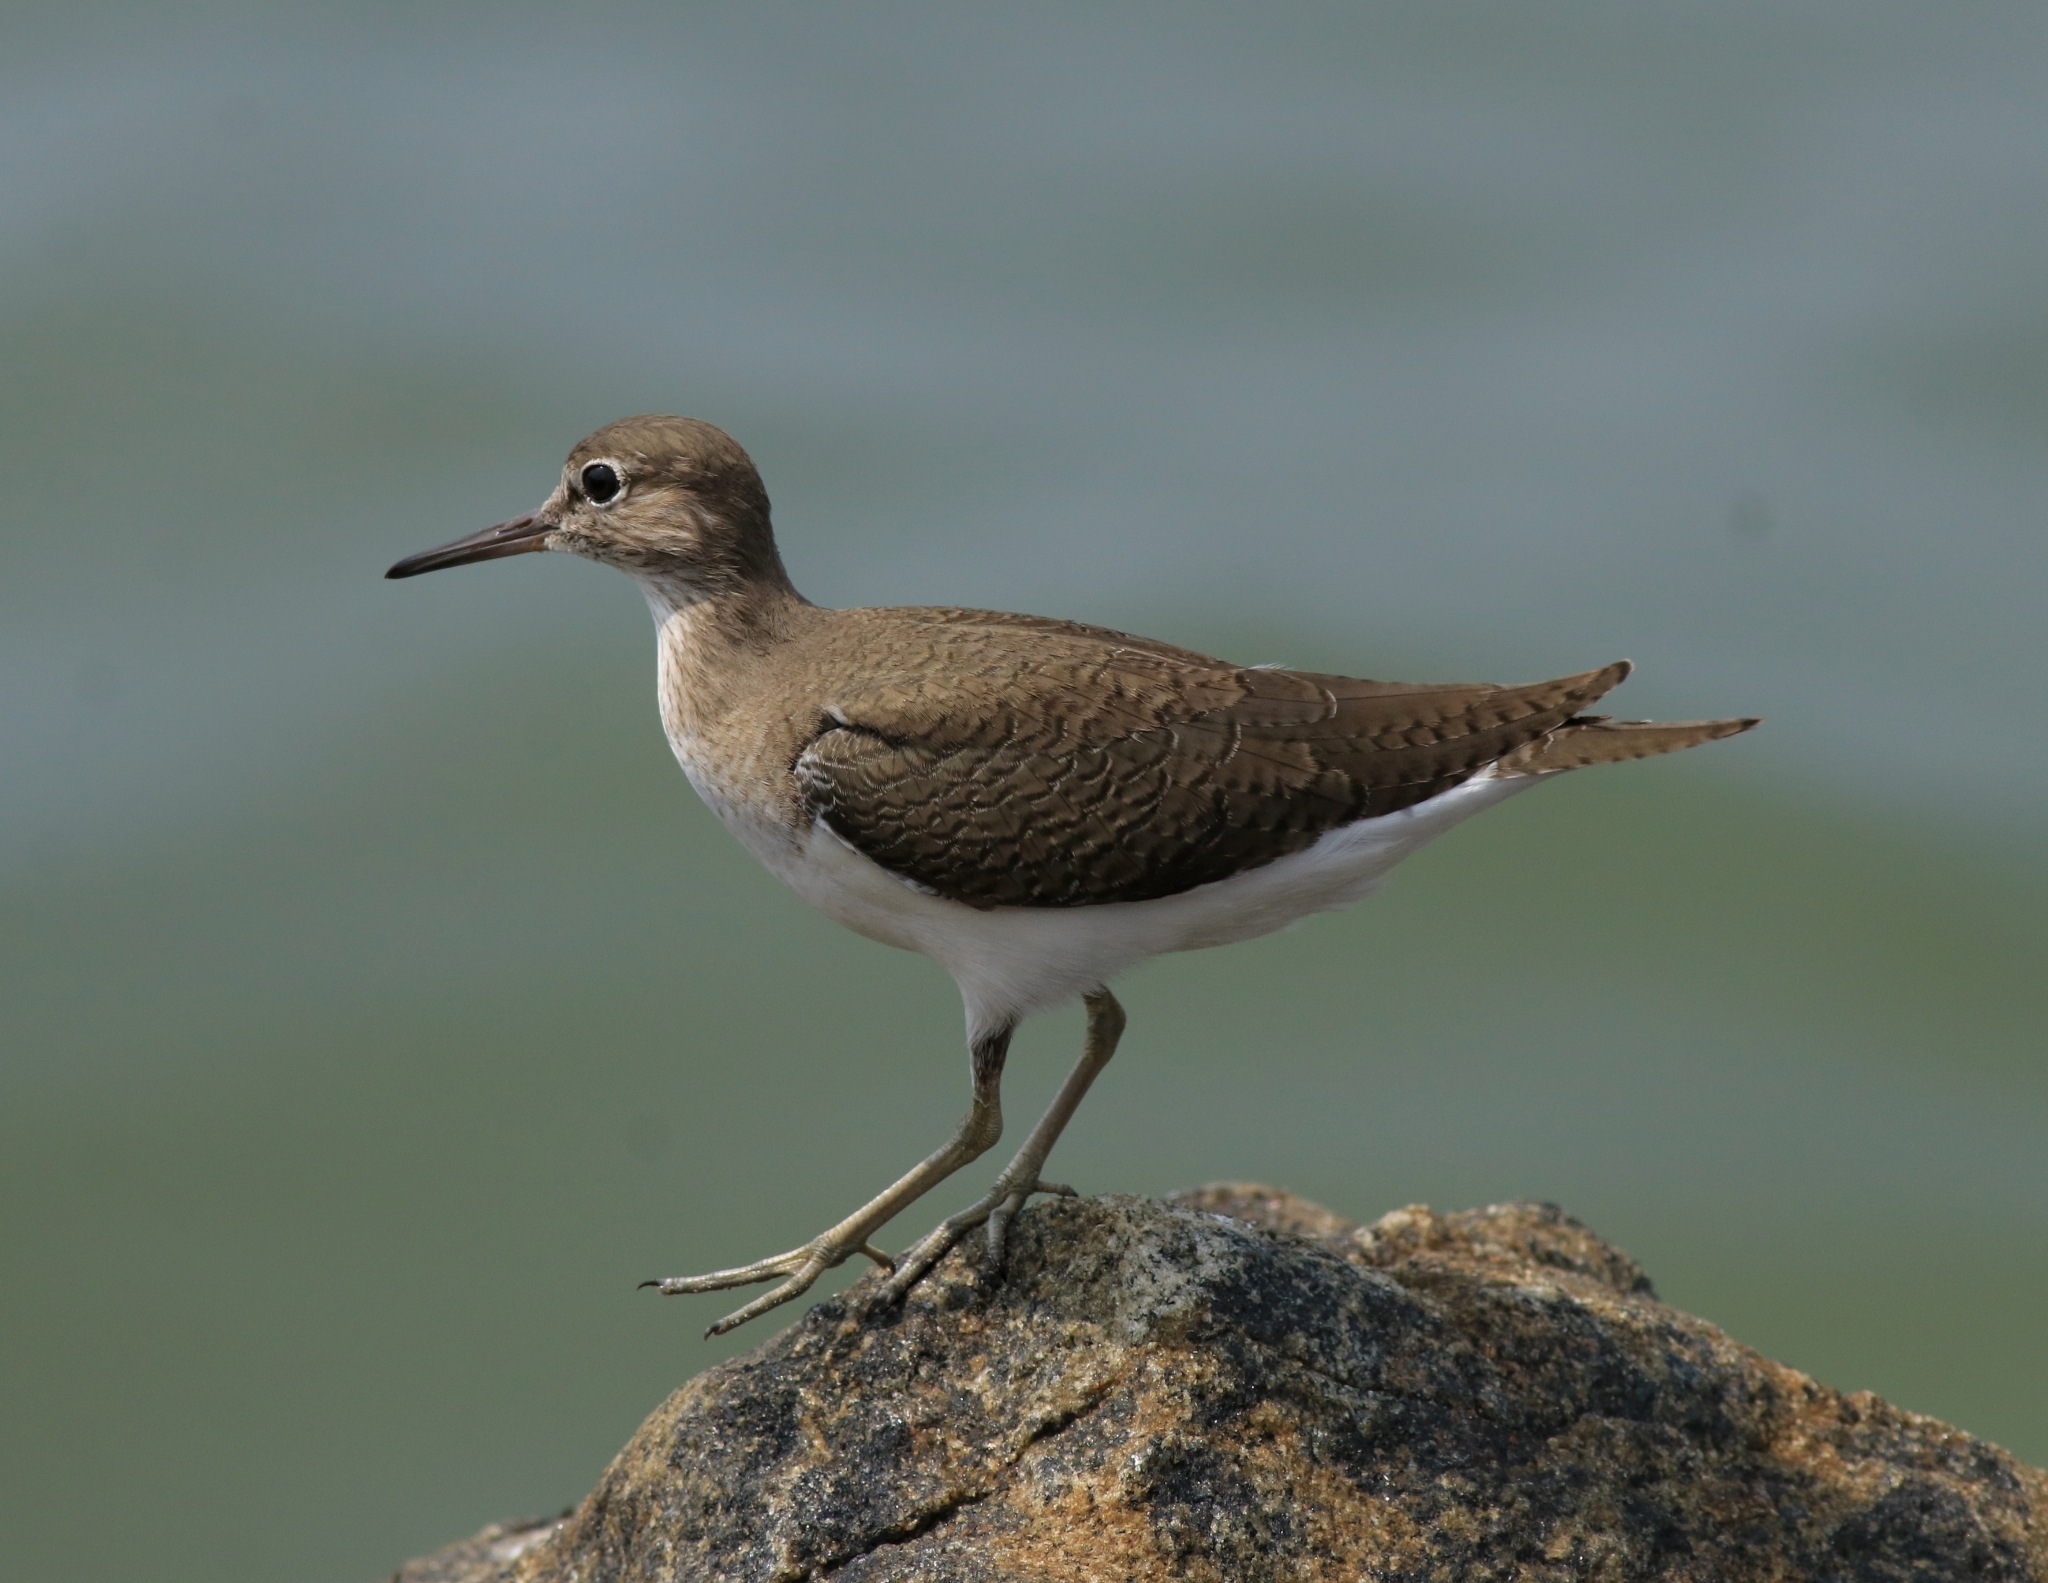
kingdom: Animalia
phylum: Chordata
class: Aves
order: Charadriiformes
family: Scolopacidae
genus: Actitis
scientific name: Actitis hypoleucos
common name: Common sandpiper
